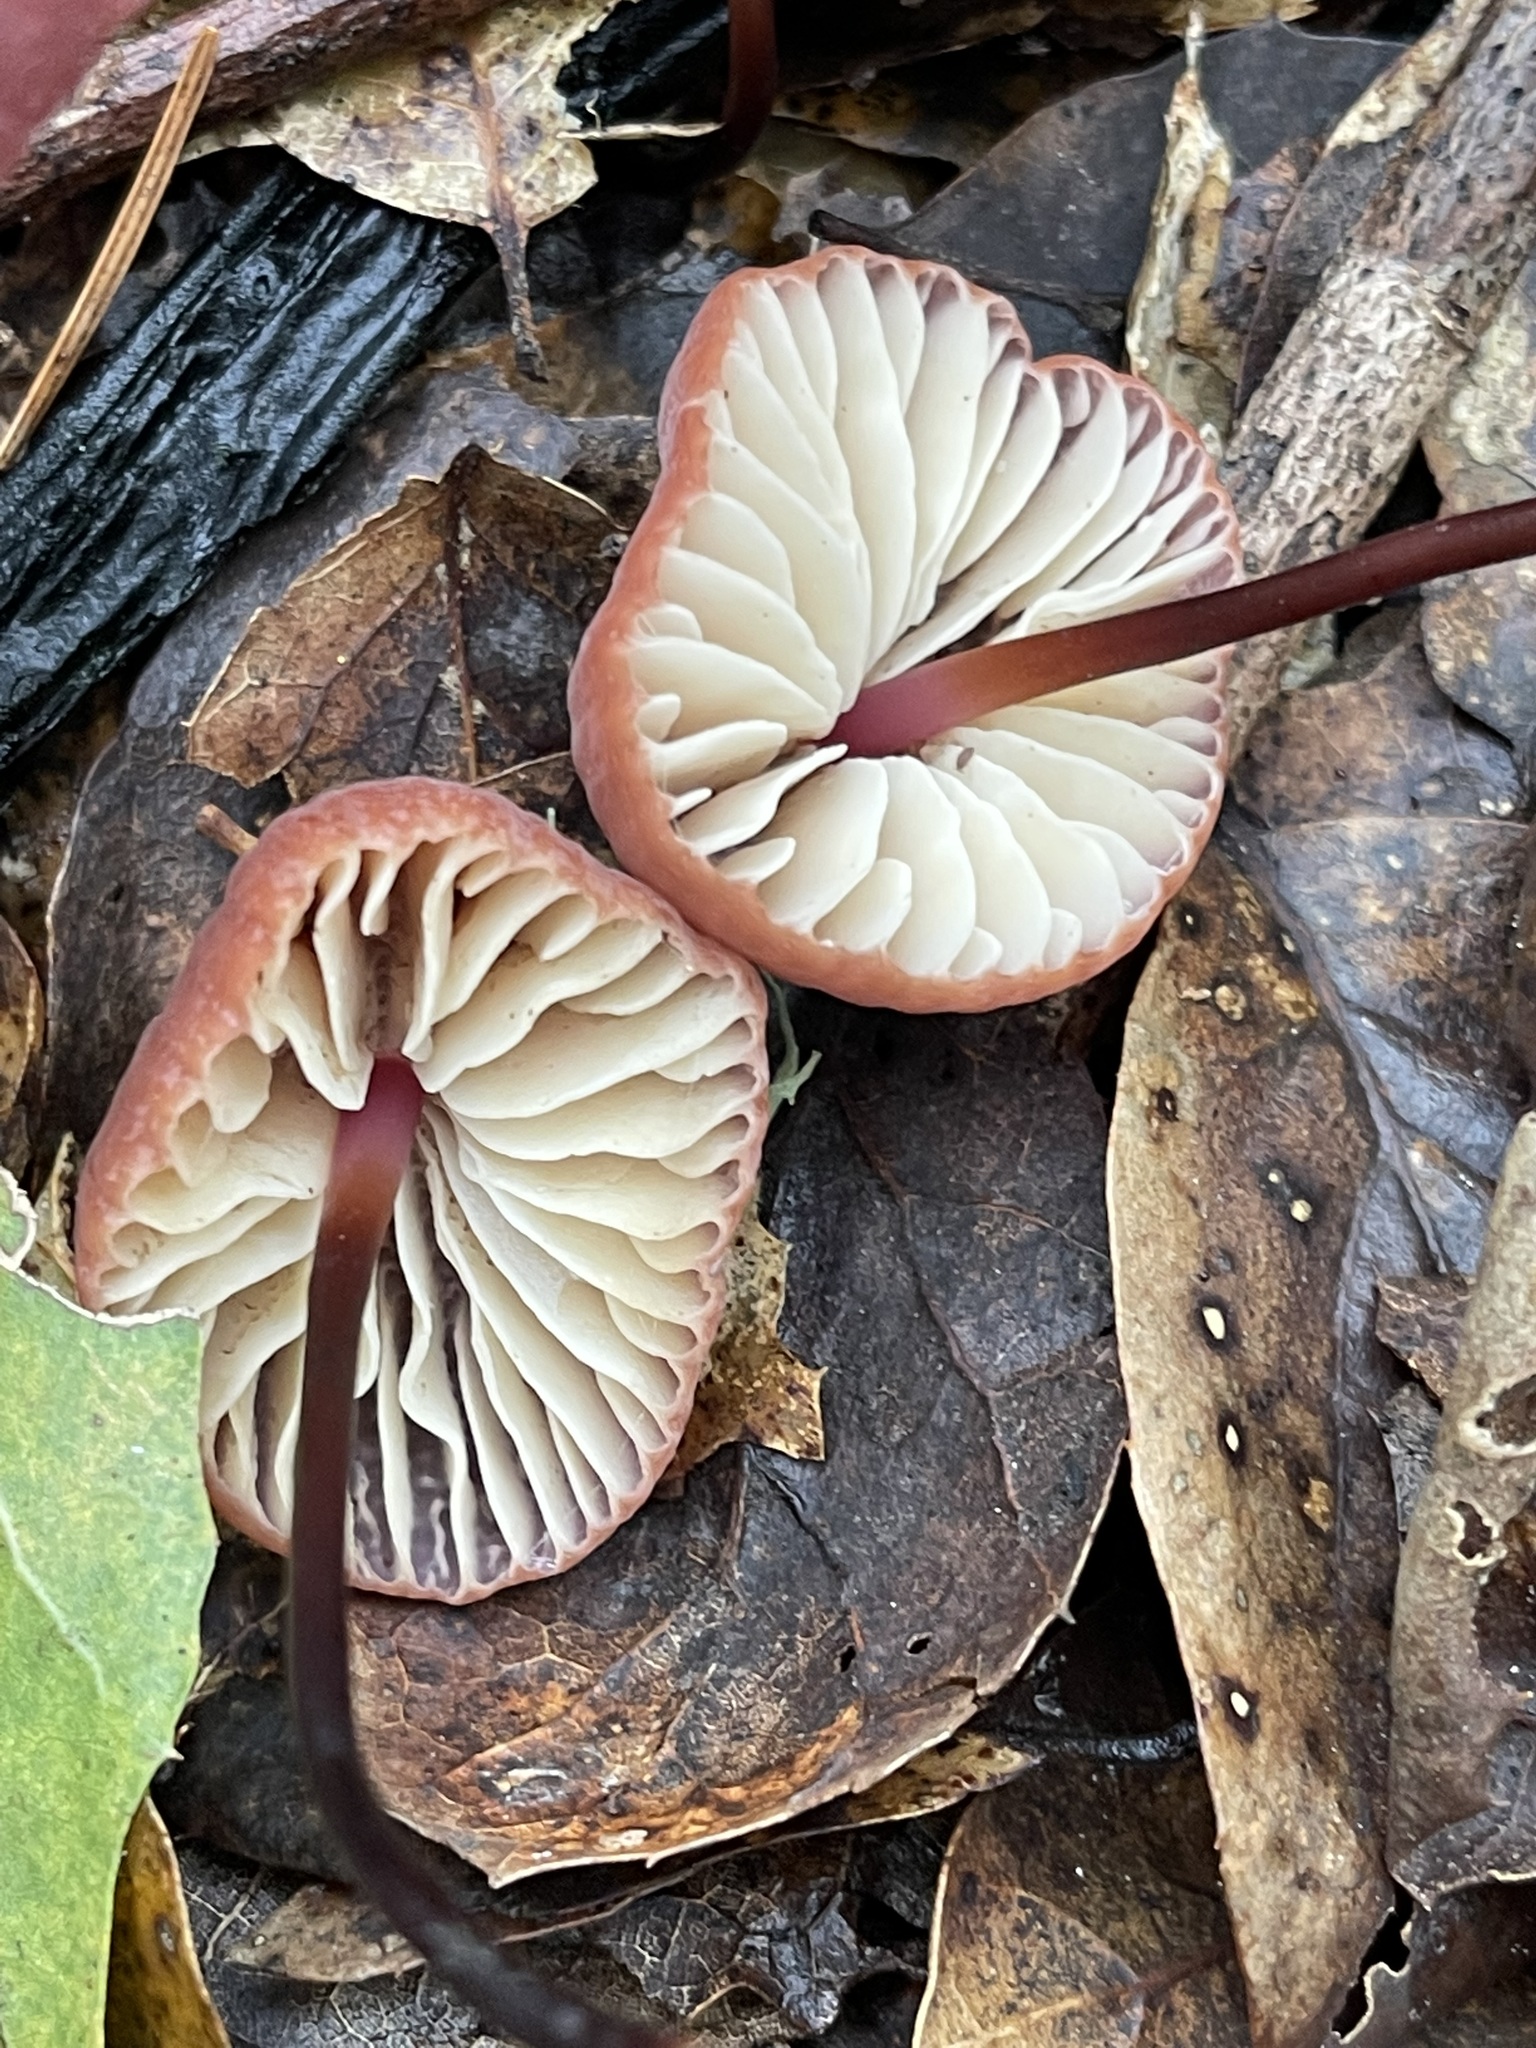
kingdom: Fungi
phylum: Basidiomycota
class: Agaricomycetes
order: Agaricales
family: Marasmiaceae
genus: Marasmius
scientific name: Marasmius plicatulus
